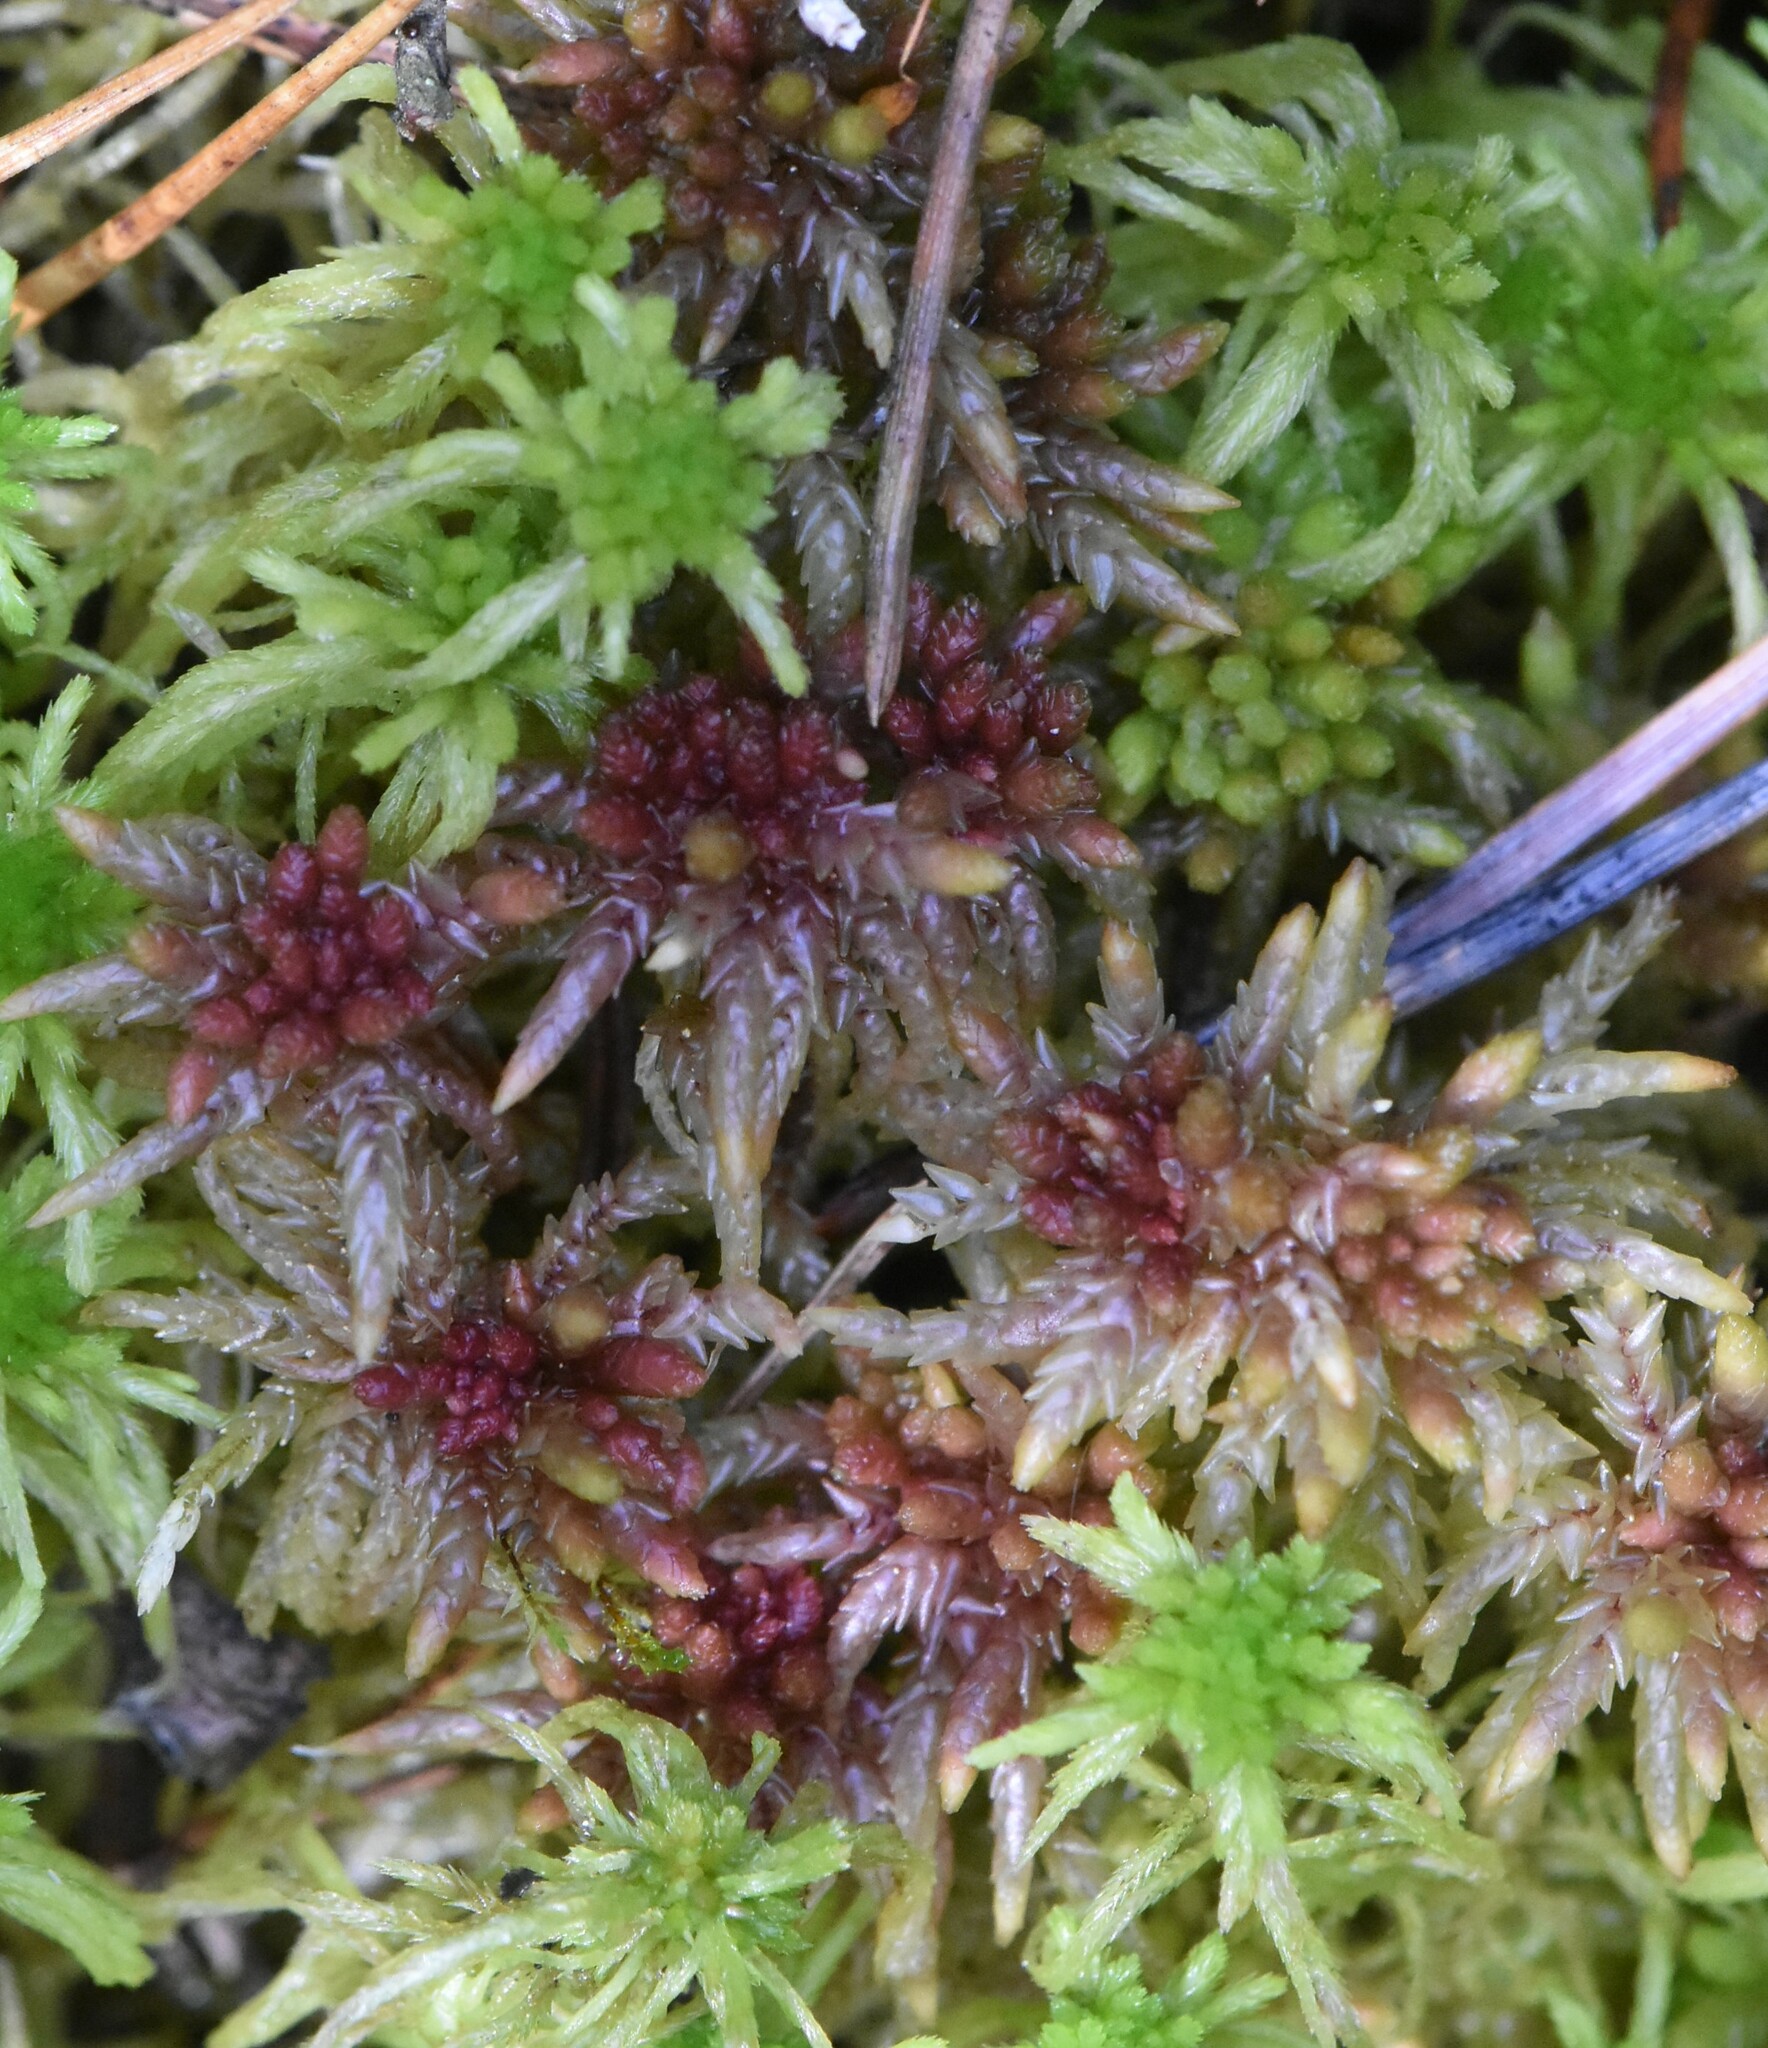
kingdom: Plantae
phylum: Bryophyta
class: Sphagnopsida
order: Sphagnales
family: Sphagnaceae
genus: Sphagnum
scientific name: Sphagnum divinum
